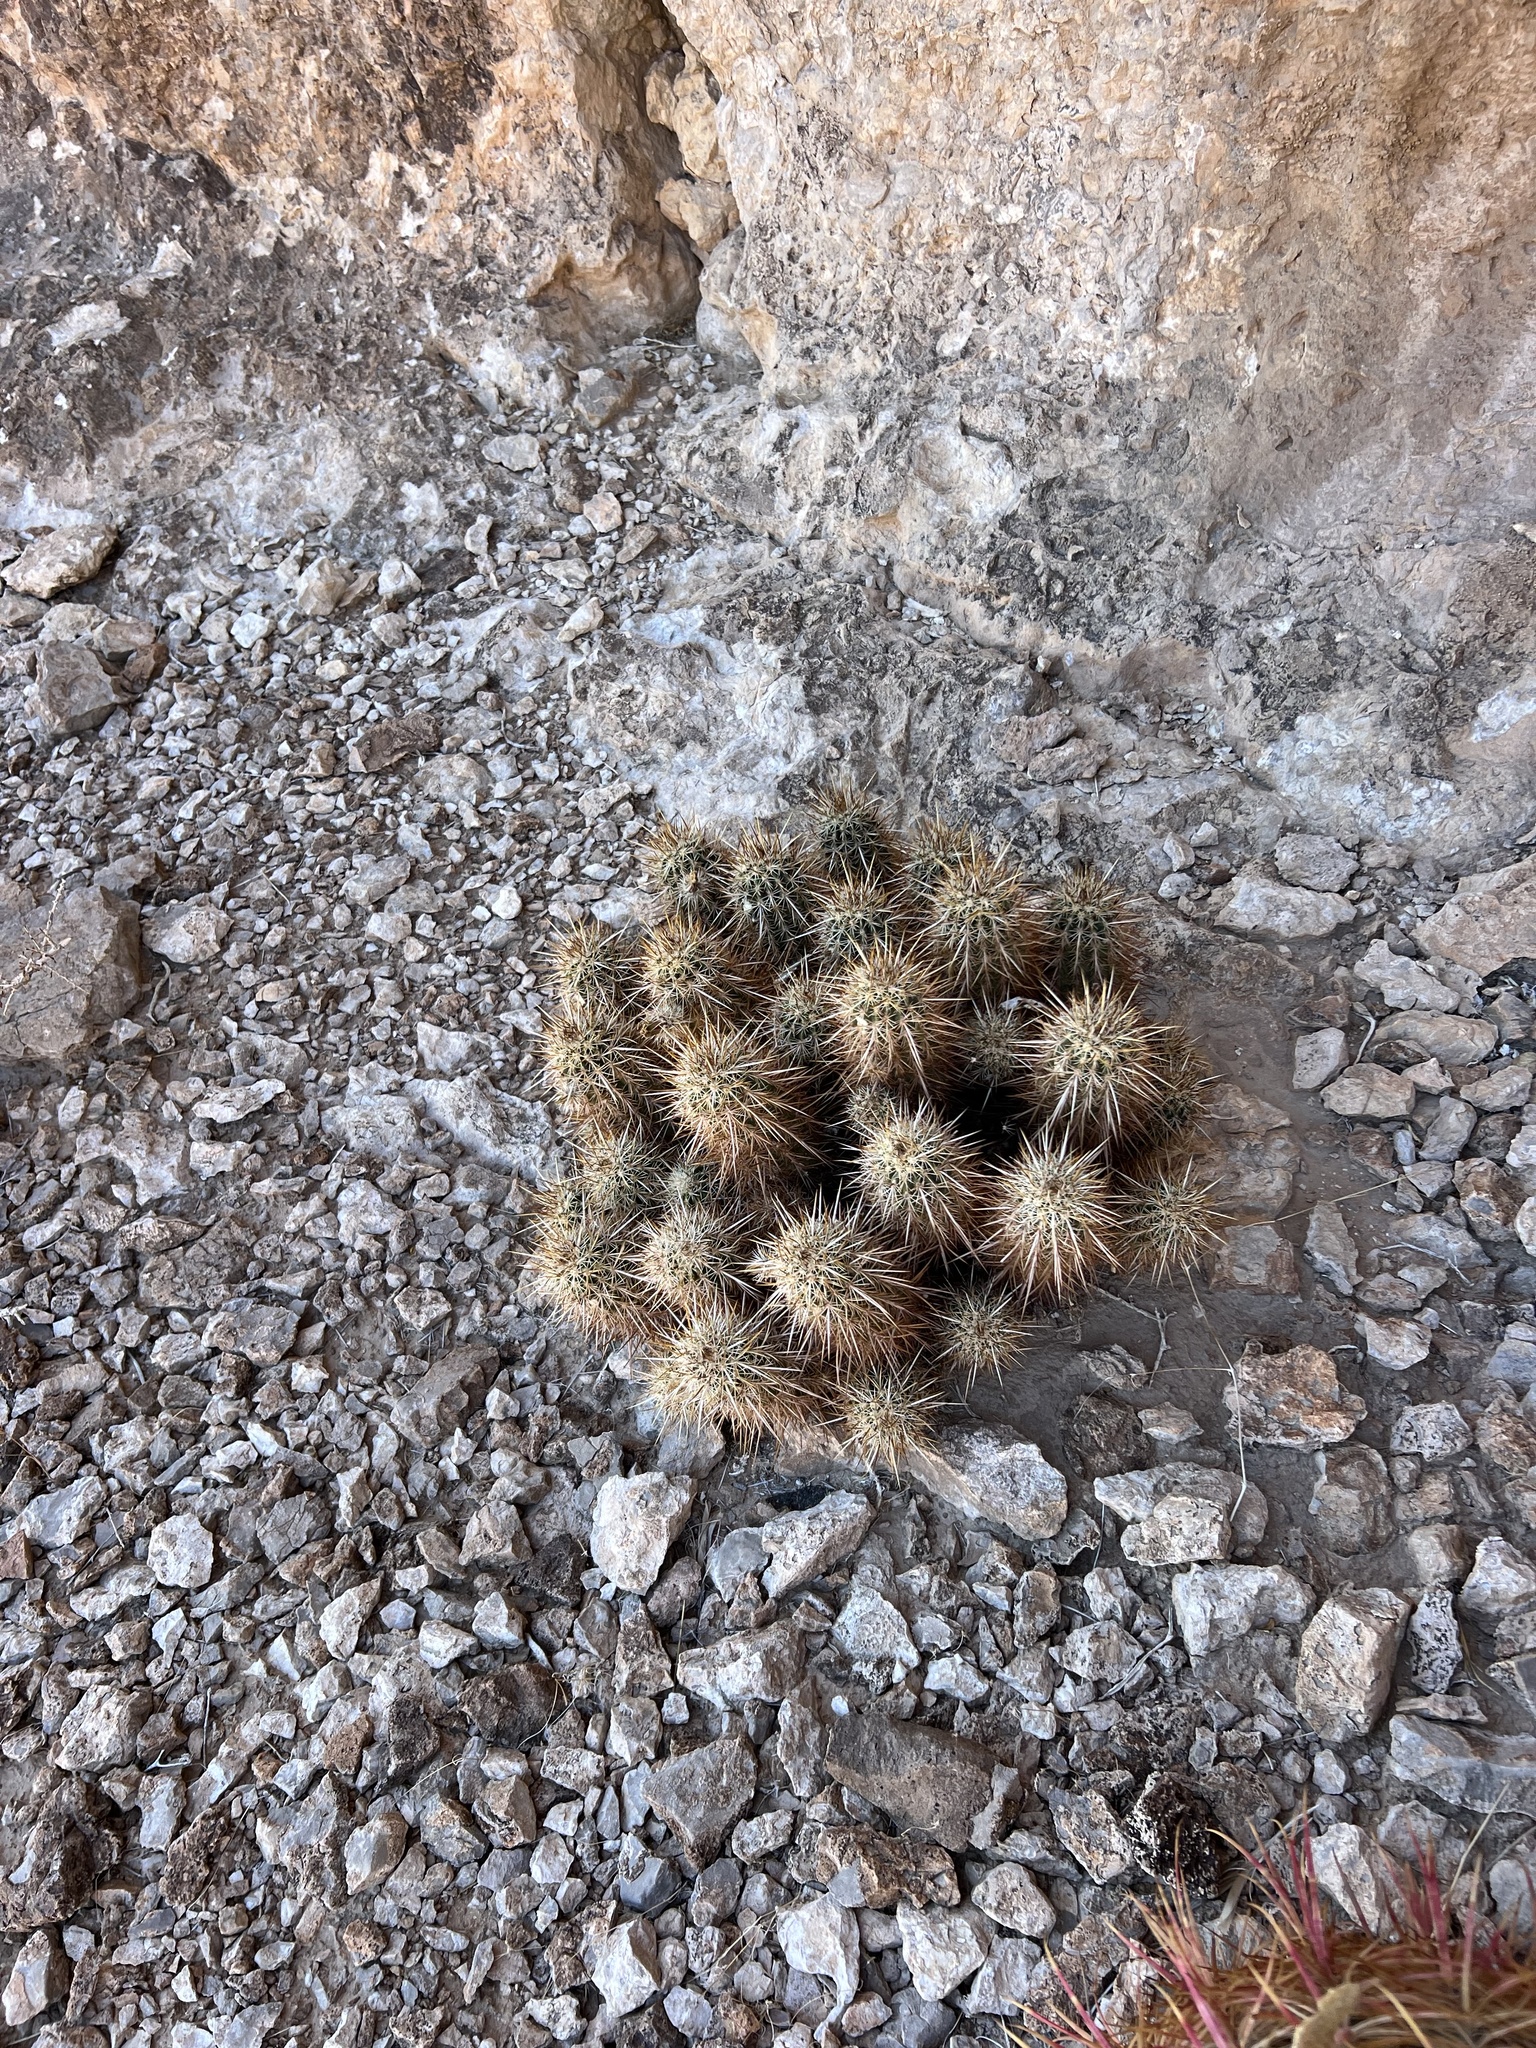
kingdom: Plantae
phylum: Tracheophyta
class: Magnoliopsida
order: Caryophyllales
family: Cactaceae
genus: Echinocereus
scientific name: Echinocereus engelmannii
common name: Engelmann's hedgehog cactus
